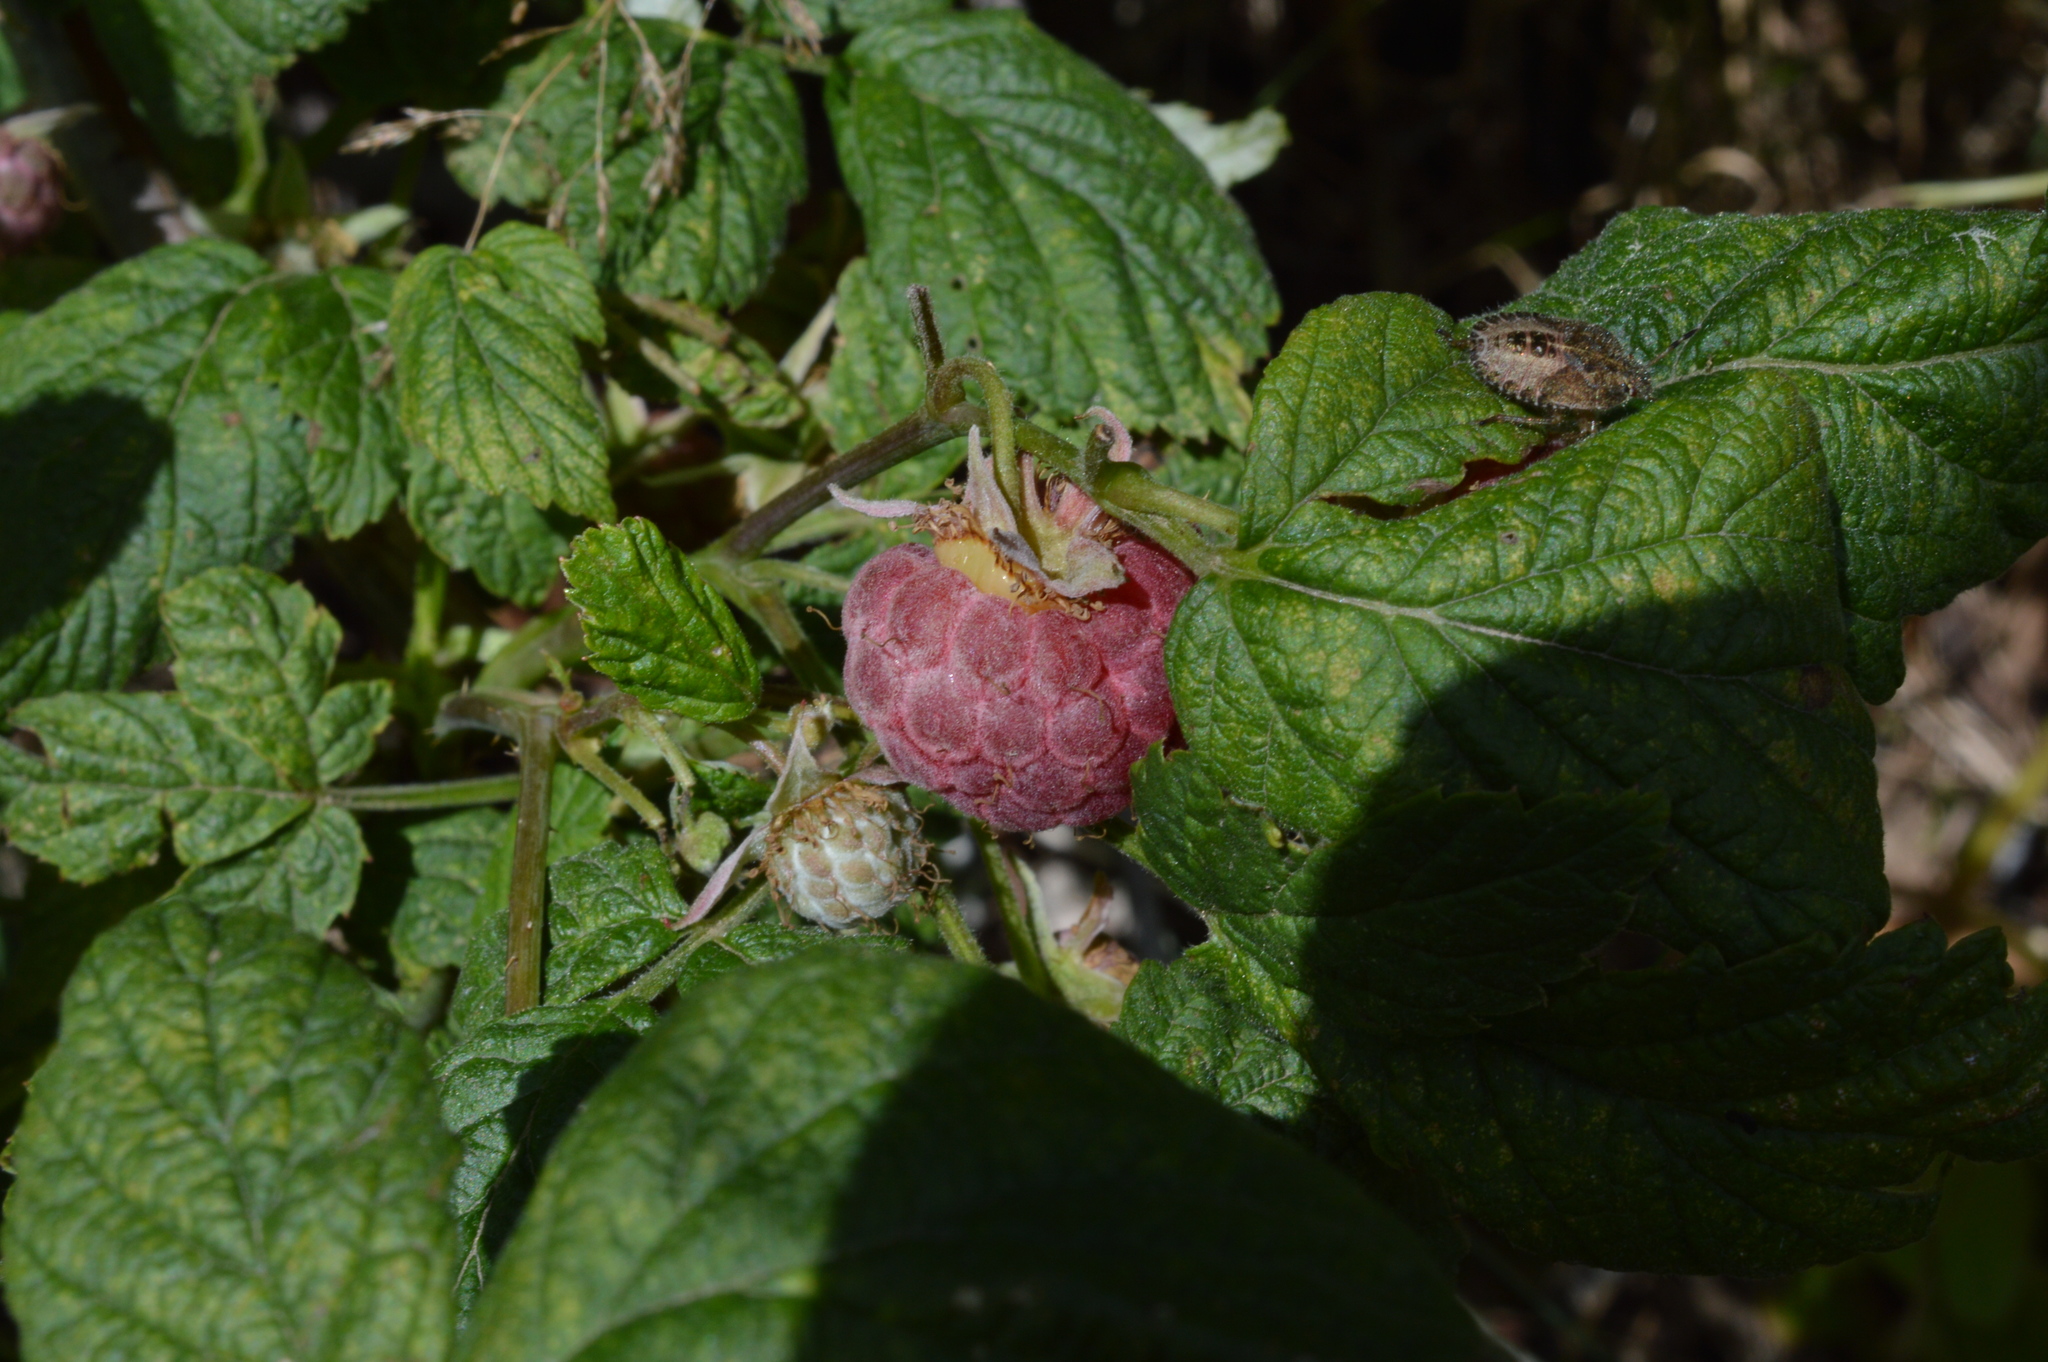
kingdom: Plantae
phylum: Tracheophyta
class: Magnoliopsida
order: Rosales
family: Rosaceae
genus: Rubus
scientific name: Rubus idaeus
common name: Raspberry
